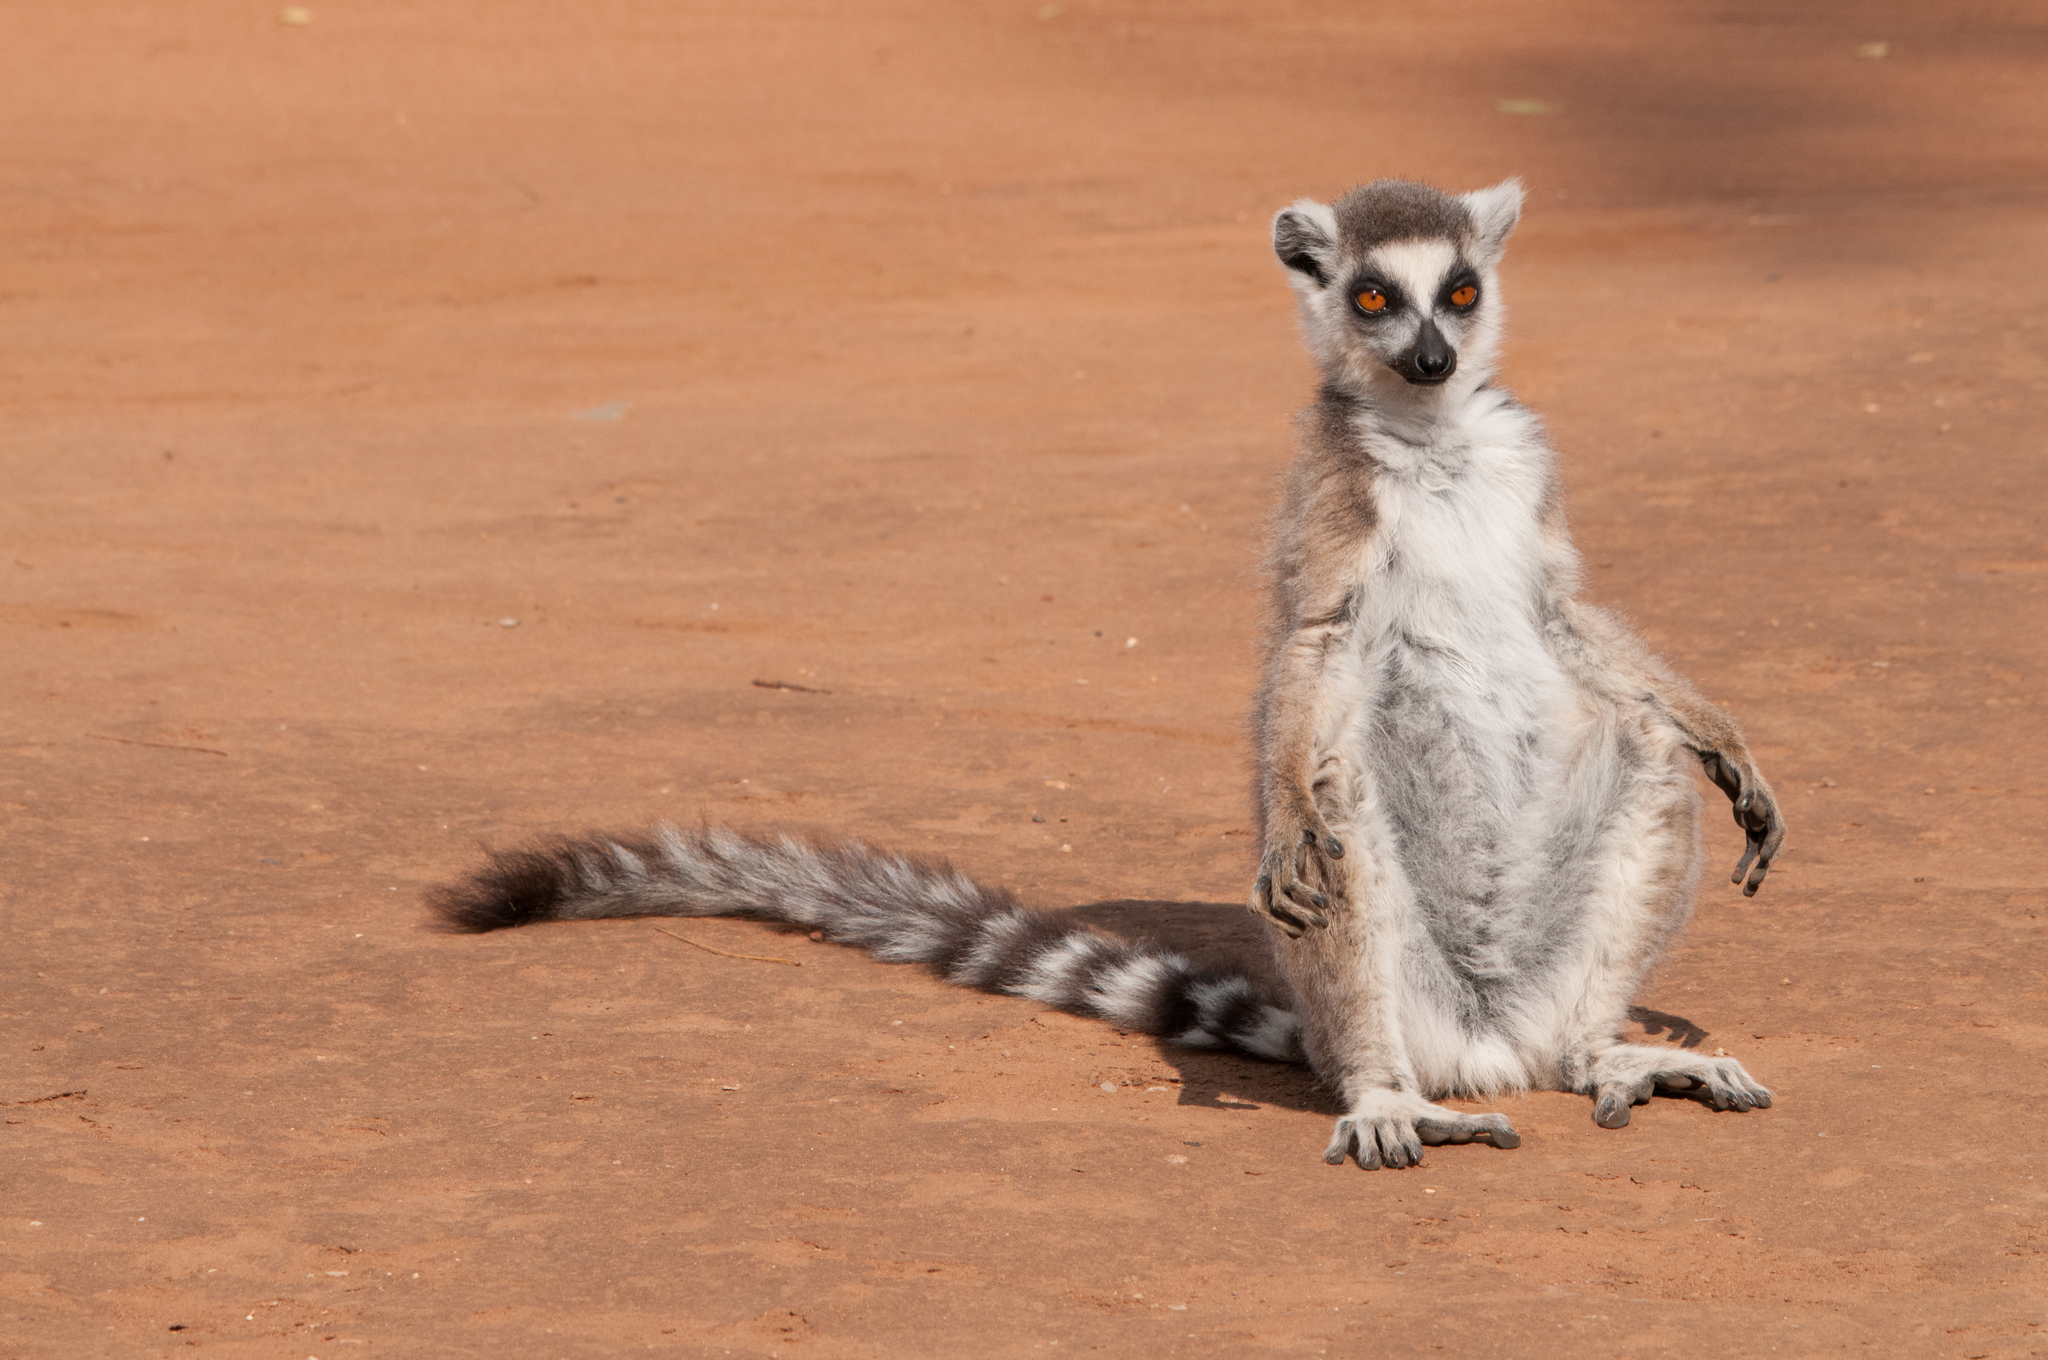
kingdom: Animalia
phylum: Chordata
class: Mammalia
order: Primates
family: Lemuridae
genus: Lemur
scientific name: Lemur catta
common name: Ring-tailed lemur
